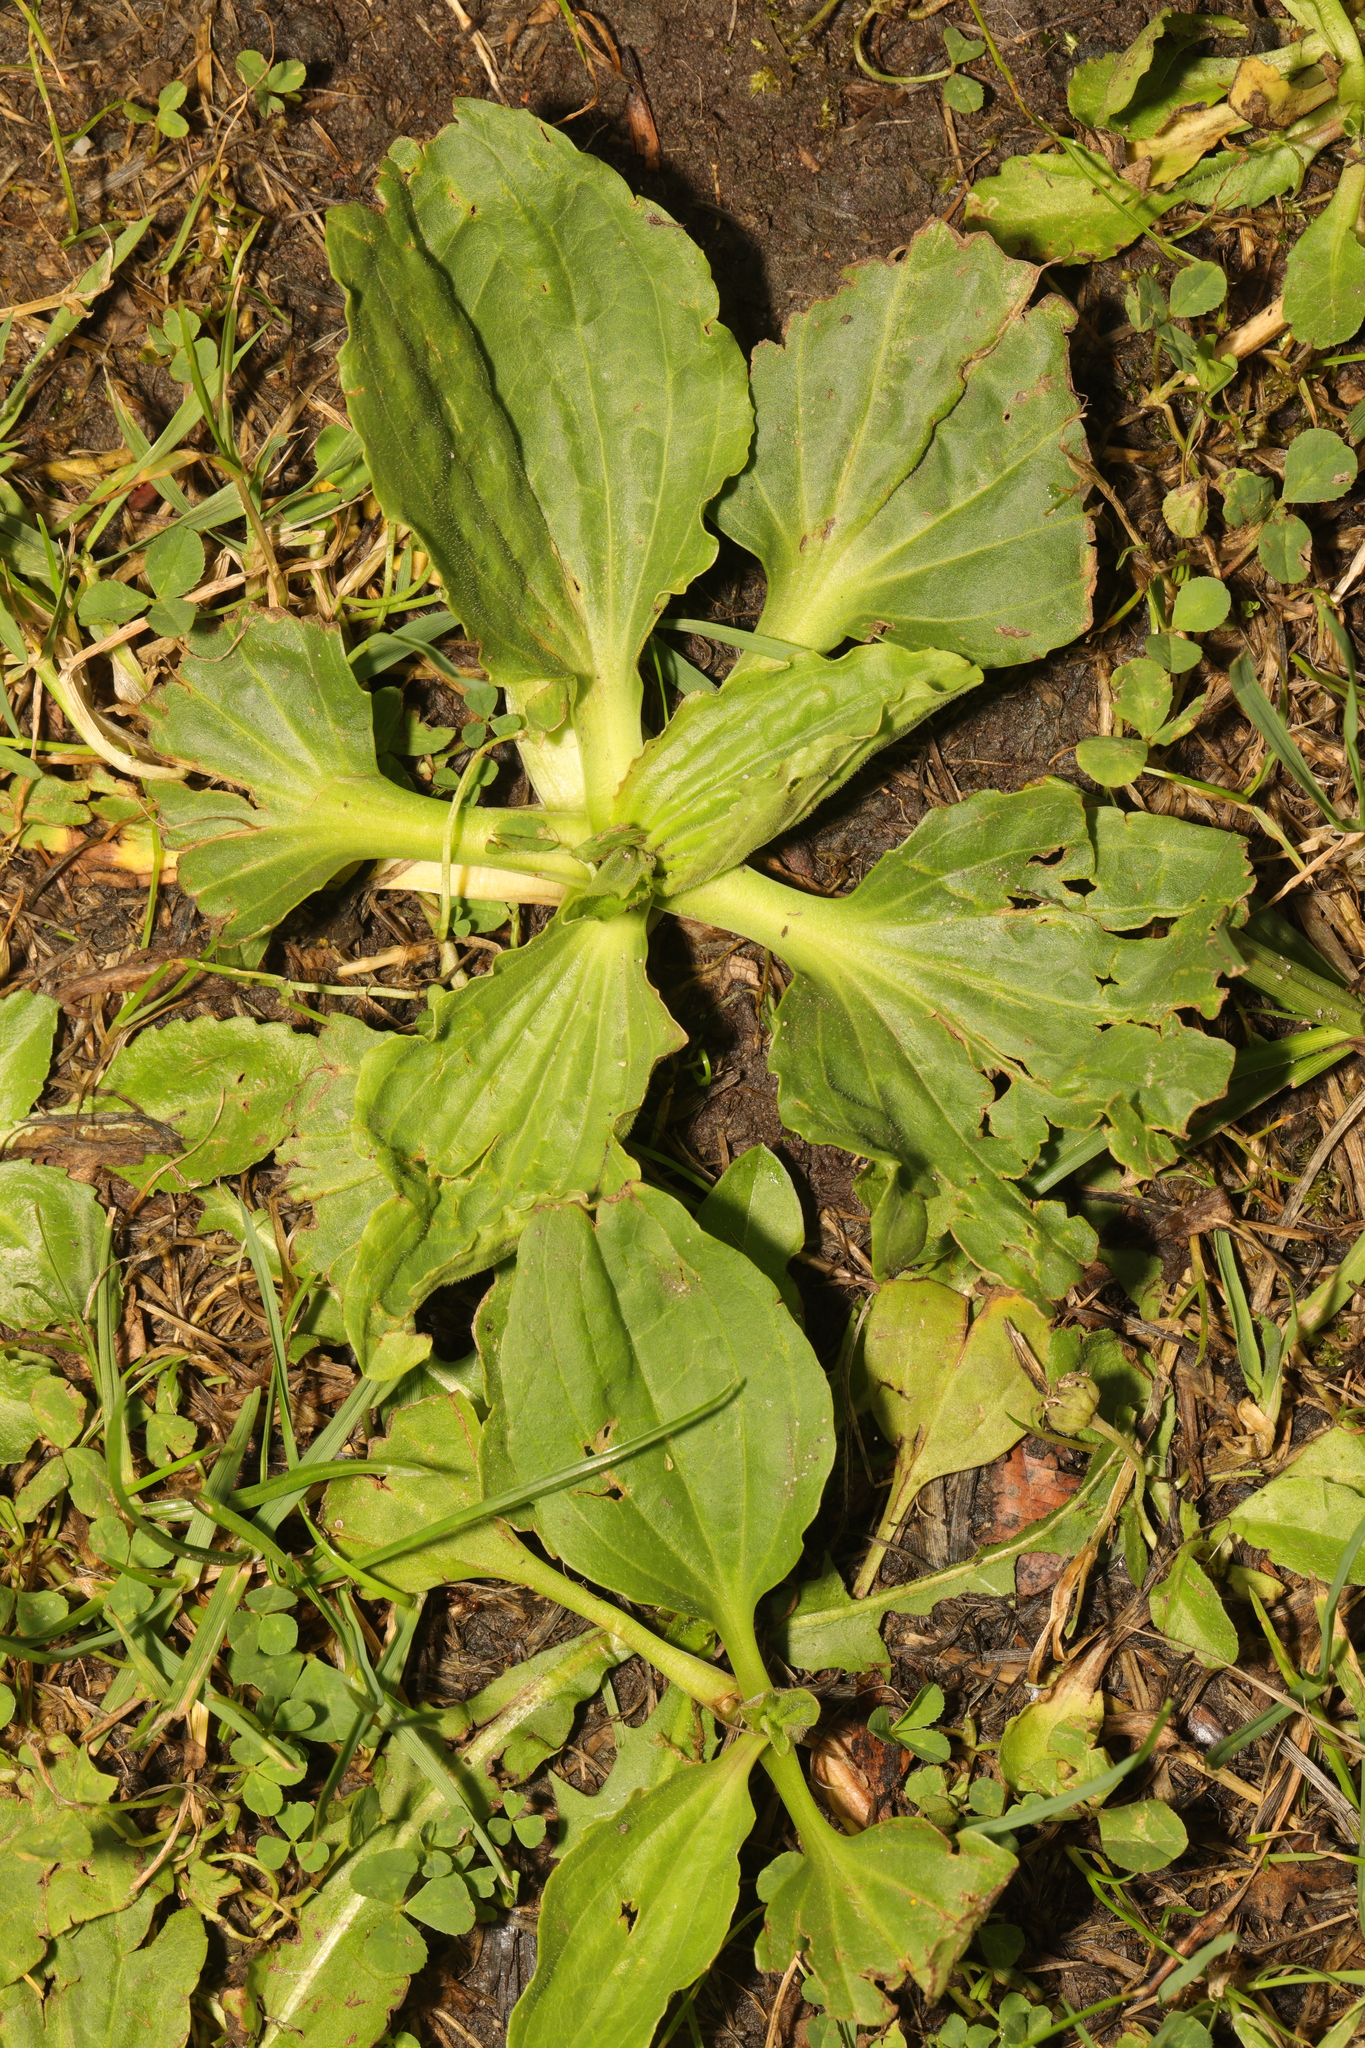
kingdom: Plantae
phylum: Tracheophyta
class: Magnoliopsida
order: Lamiales
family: Plantaginaceae
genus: Plantago
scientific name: Plantago major
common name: Common plantain
